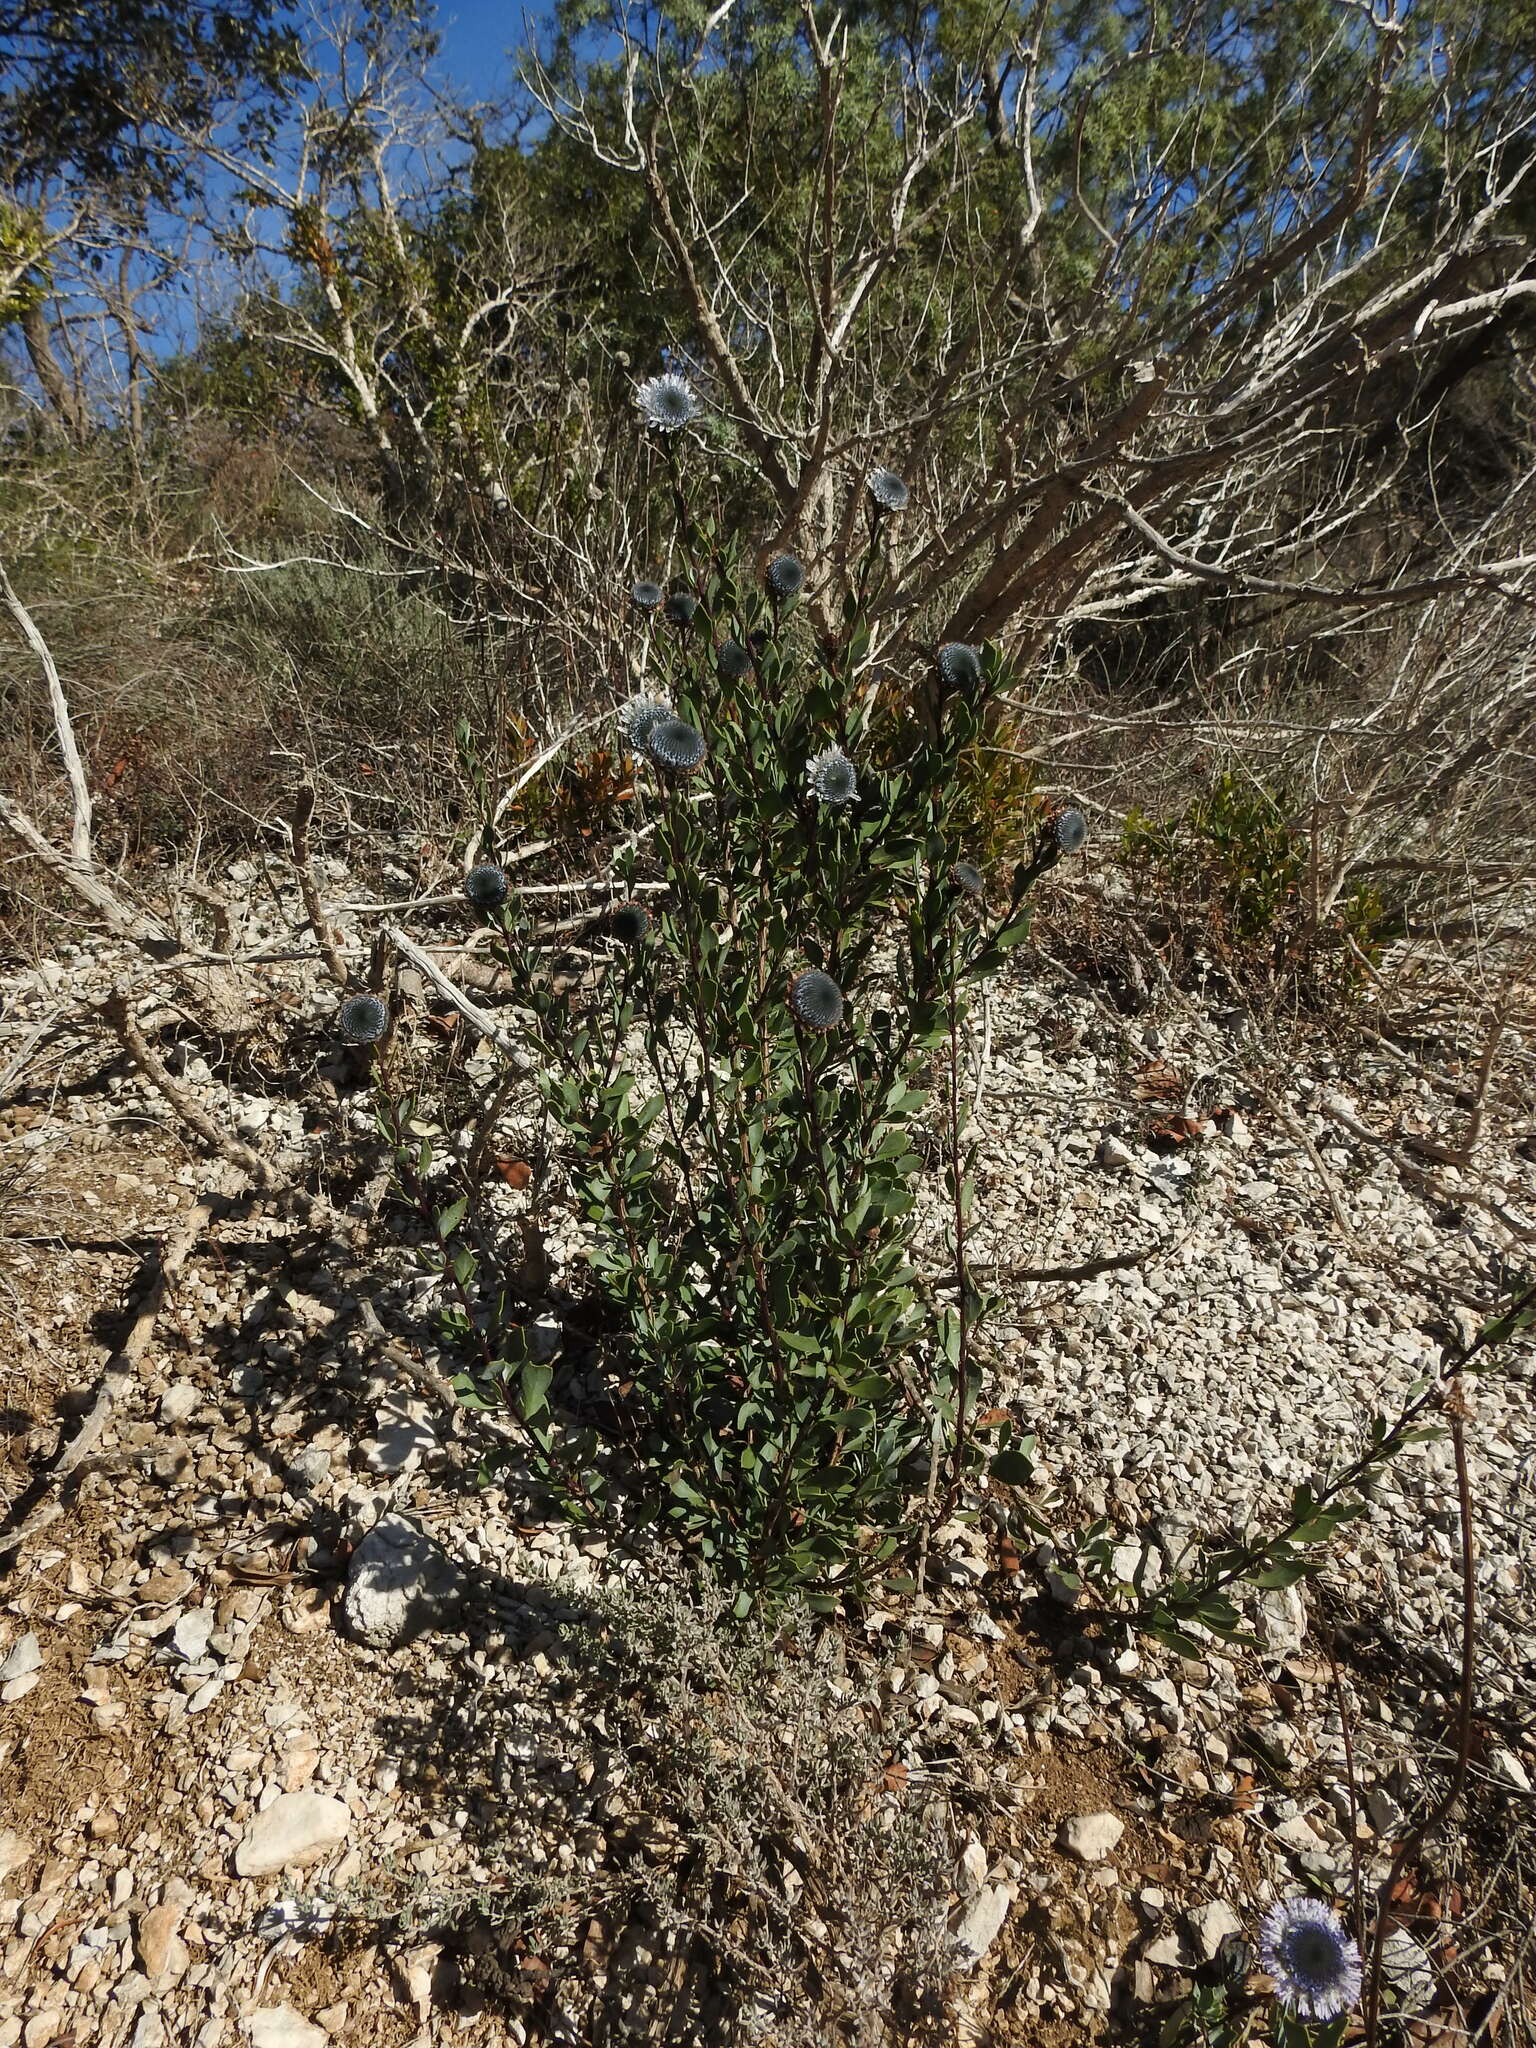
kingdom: Plantae
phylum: Tracheophyta
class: Magnoliopsida
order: Lamiales
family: Plantaginaceae
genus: Globularia
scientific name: Globularia alypum
